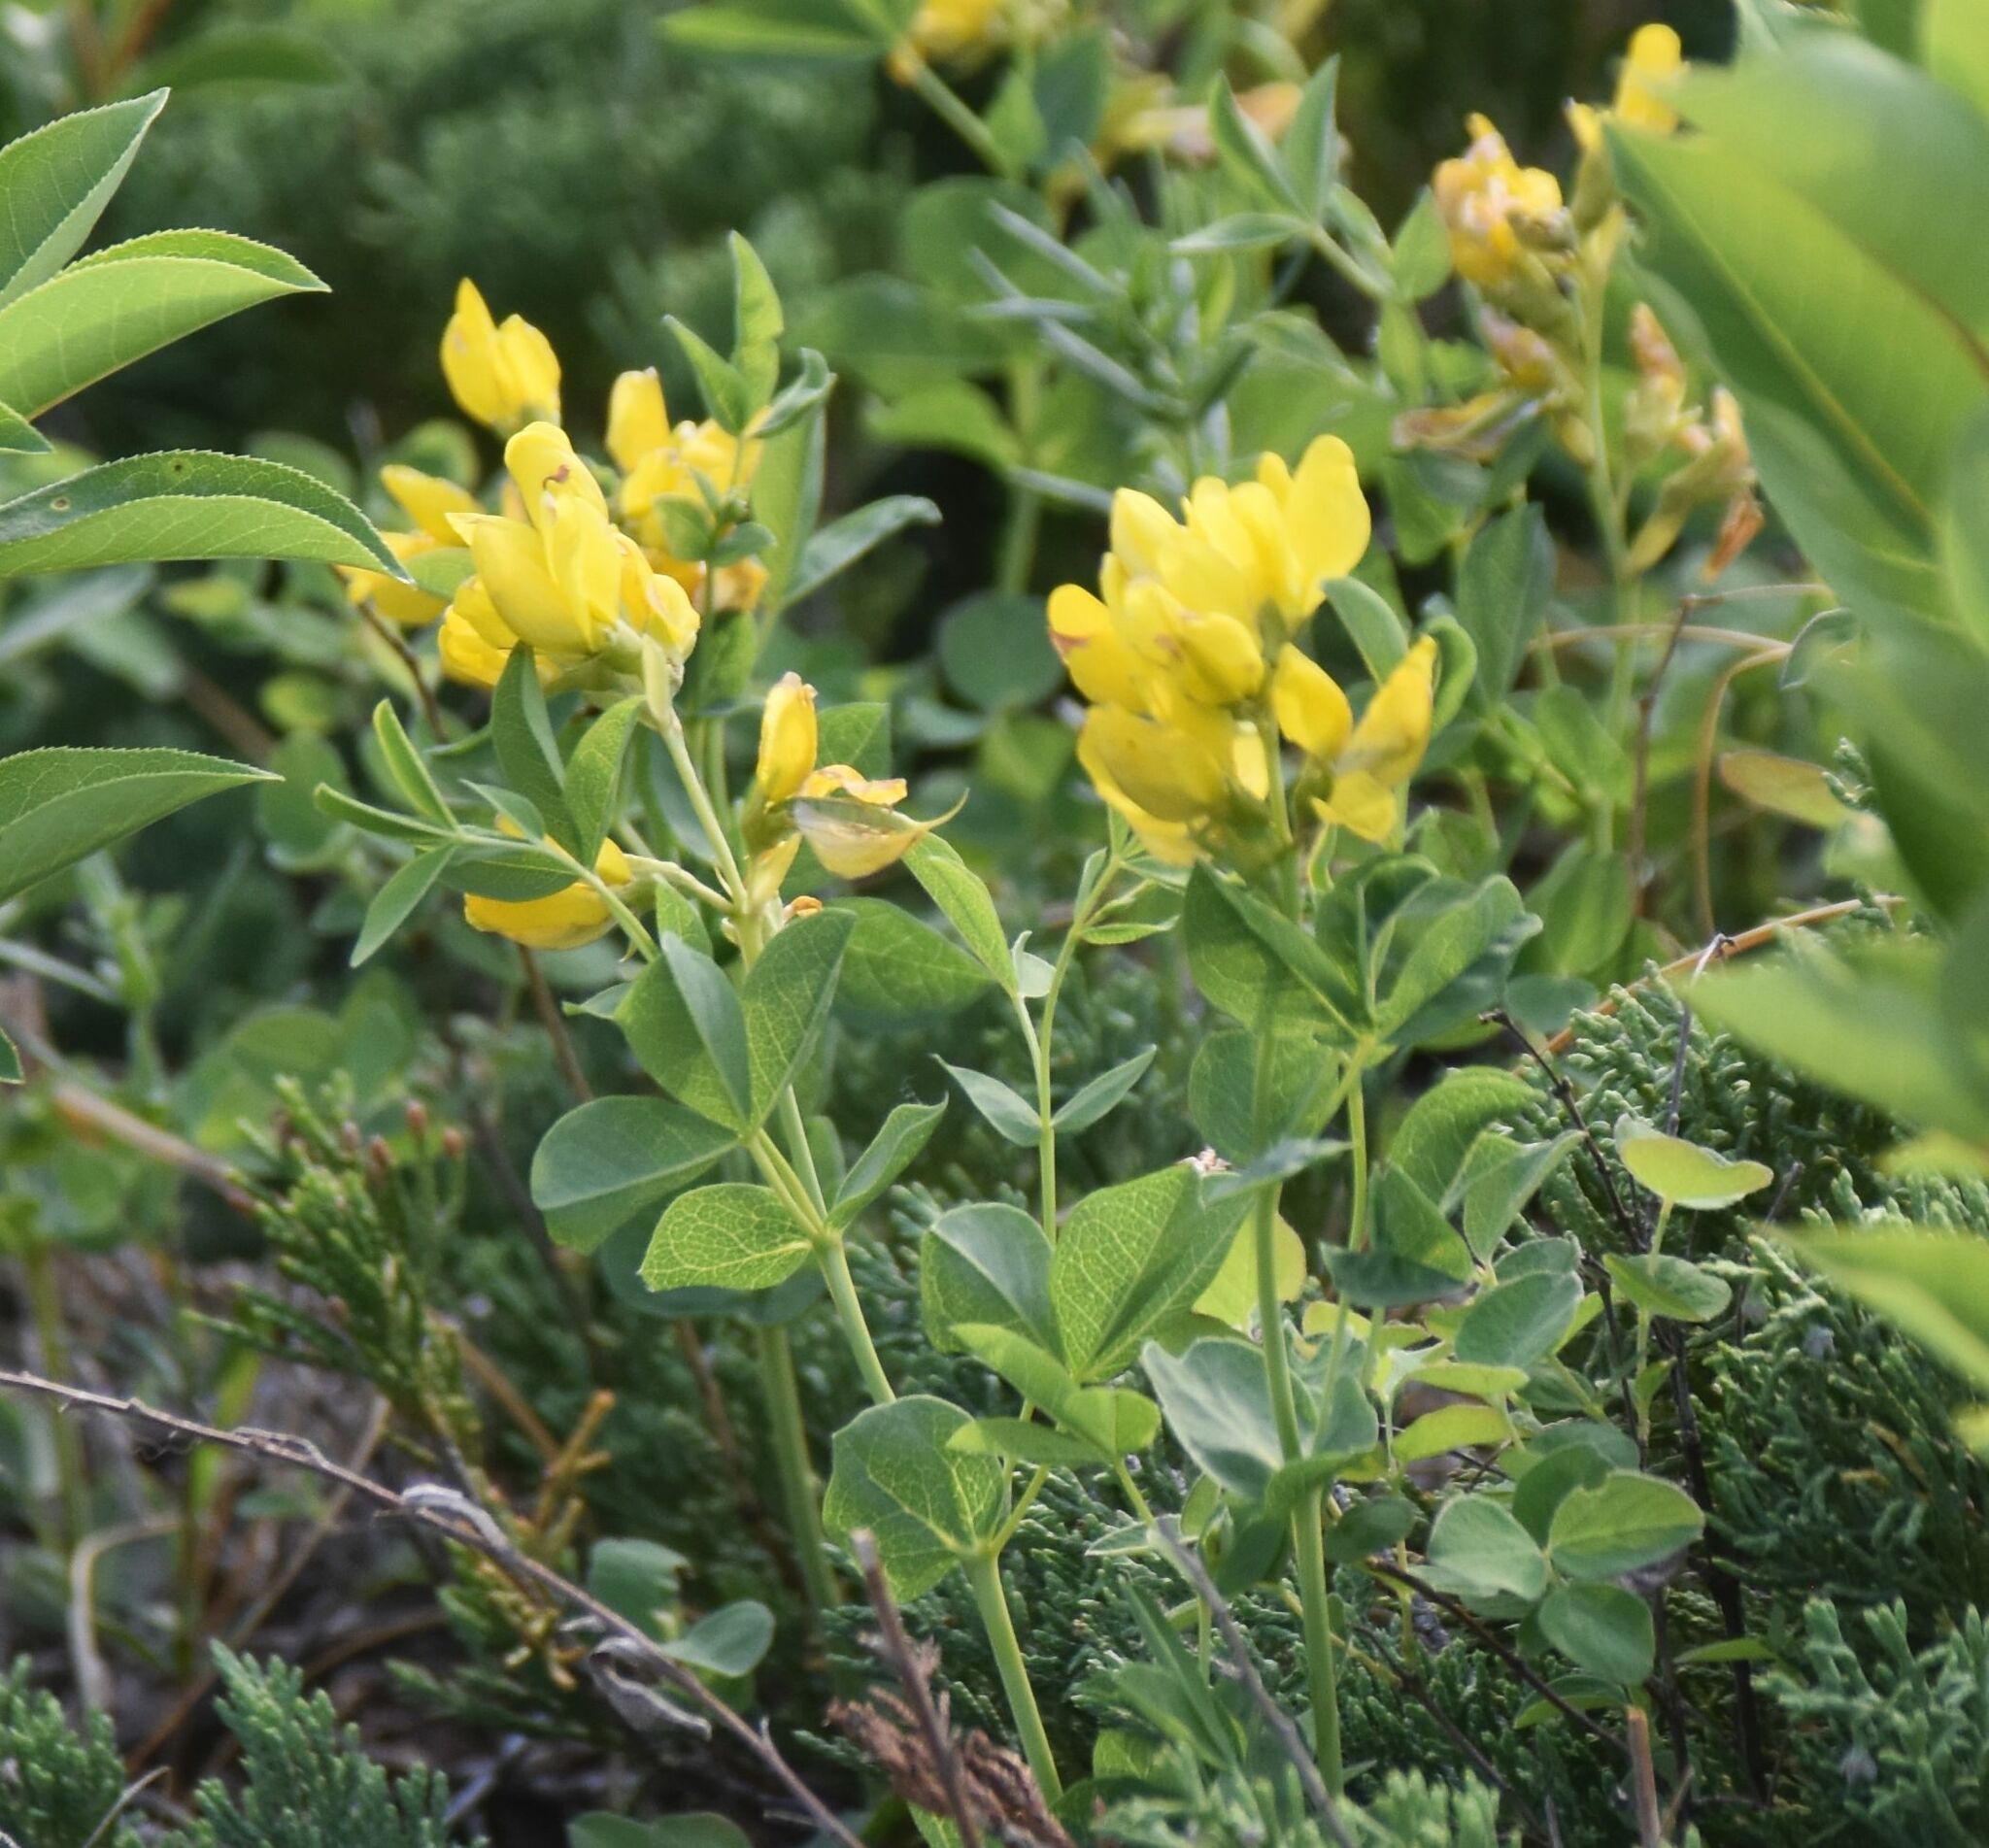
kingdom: Plantae
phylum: Tracheophyta
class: Magnoliopsida
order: Fabales
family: Fabaceae
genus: Thermopsis
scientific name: Thermopsis rhombifolia
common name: Circle-pod-pea
